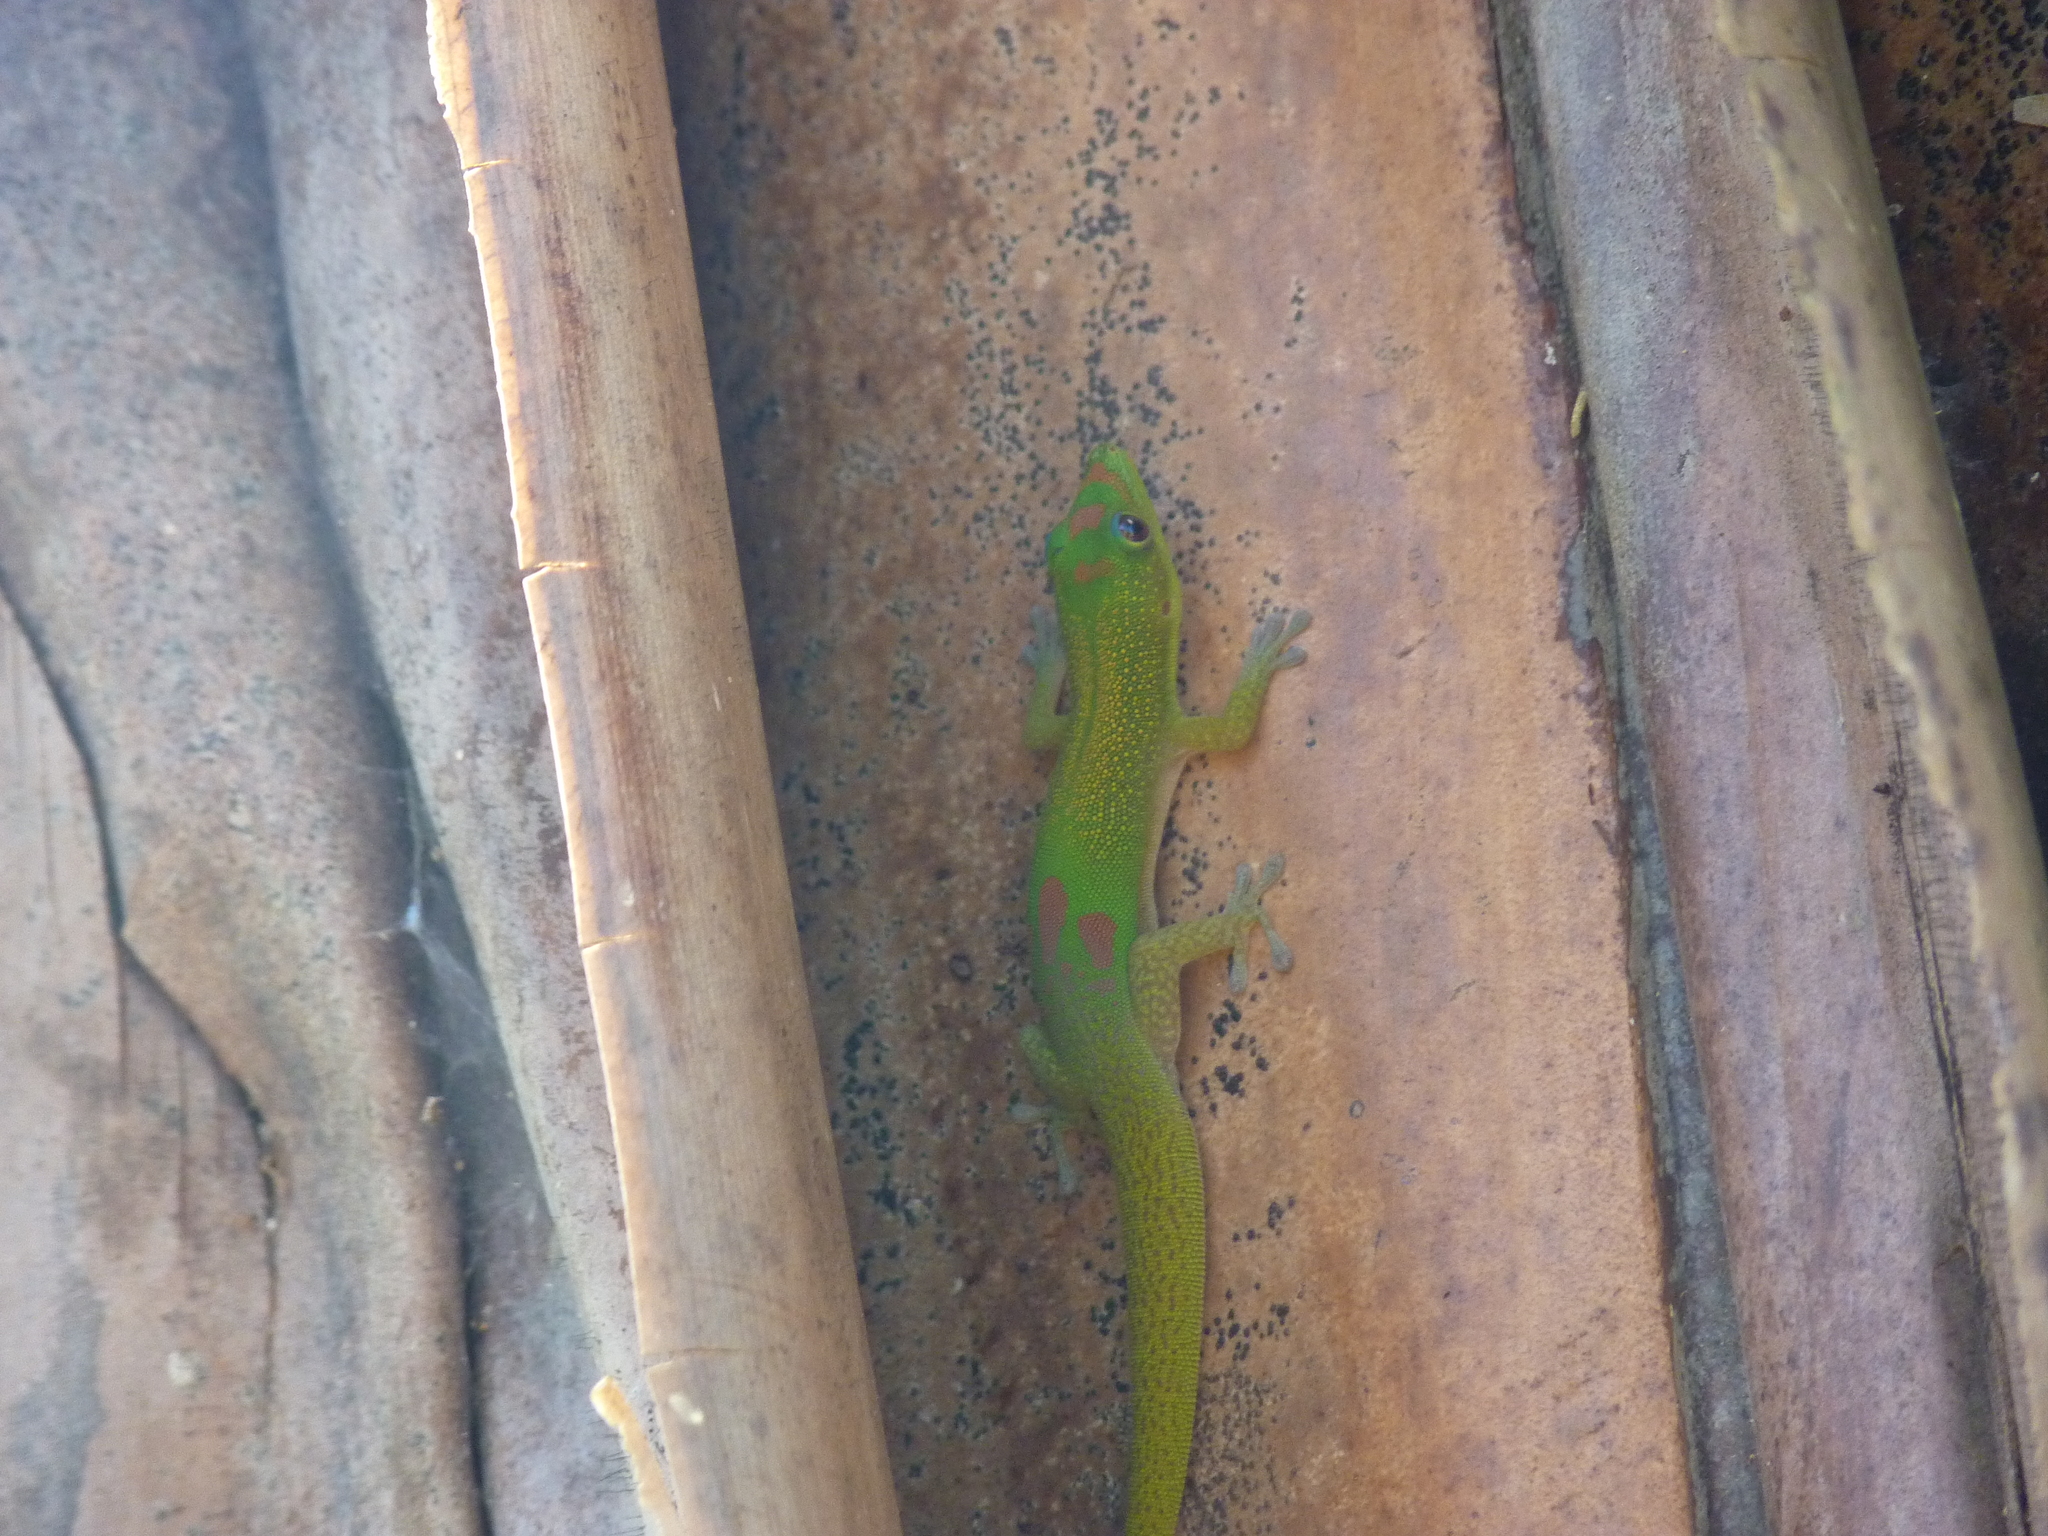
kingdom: Animalia
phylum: Chordata
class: Squamata
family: Gekkonidae
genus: Phelsuma
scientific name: Phelsuma laticauda
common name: Gold dust day gecko
